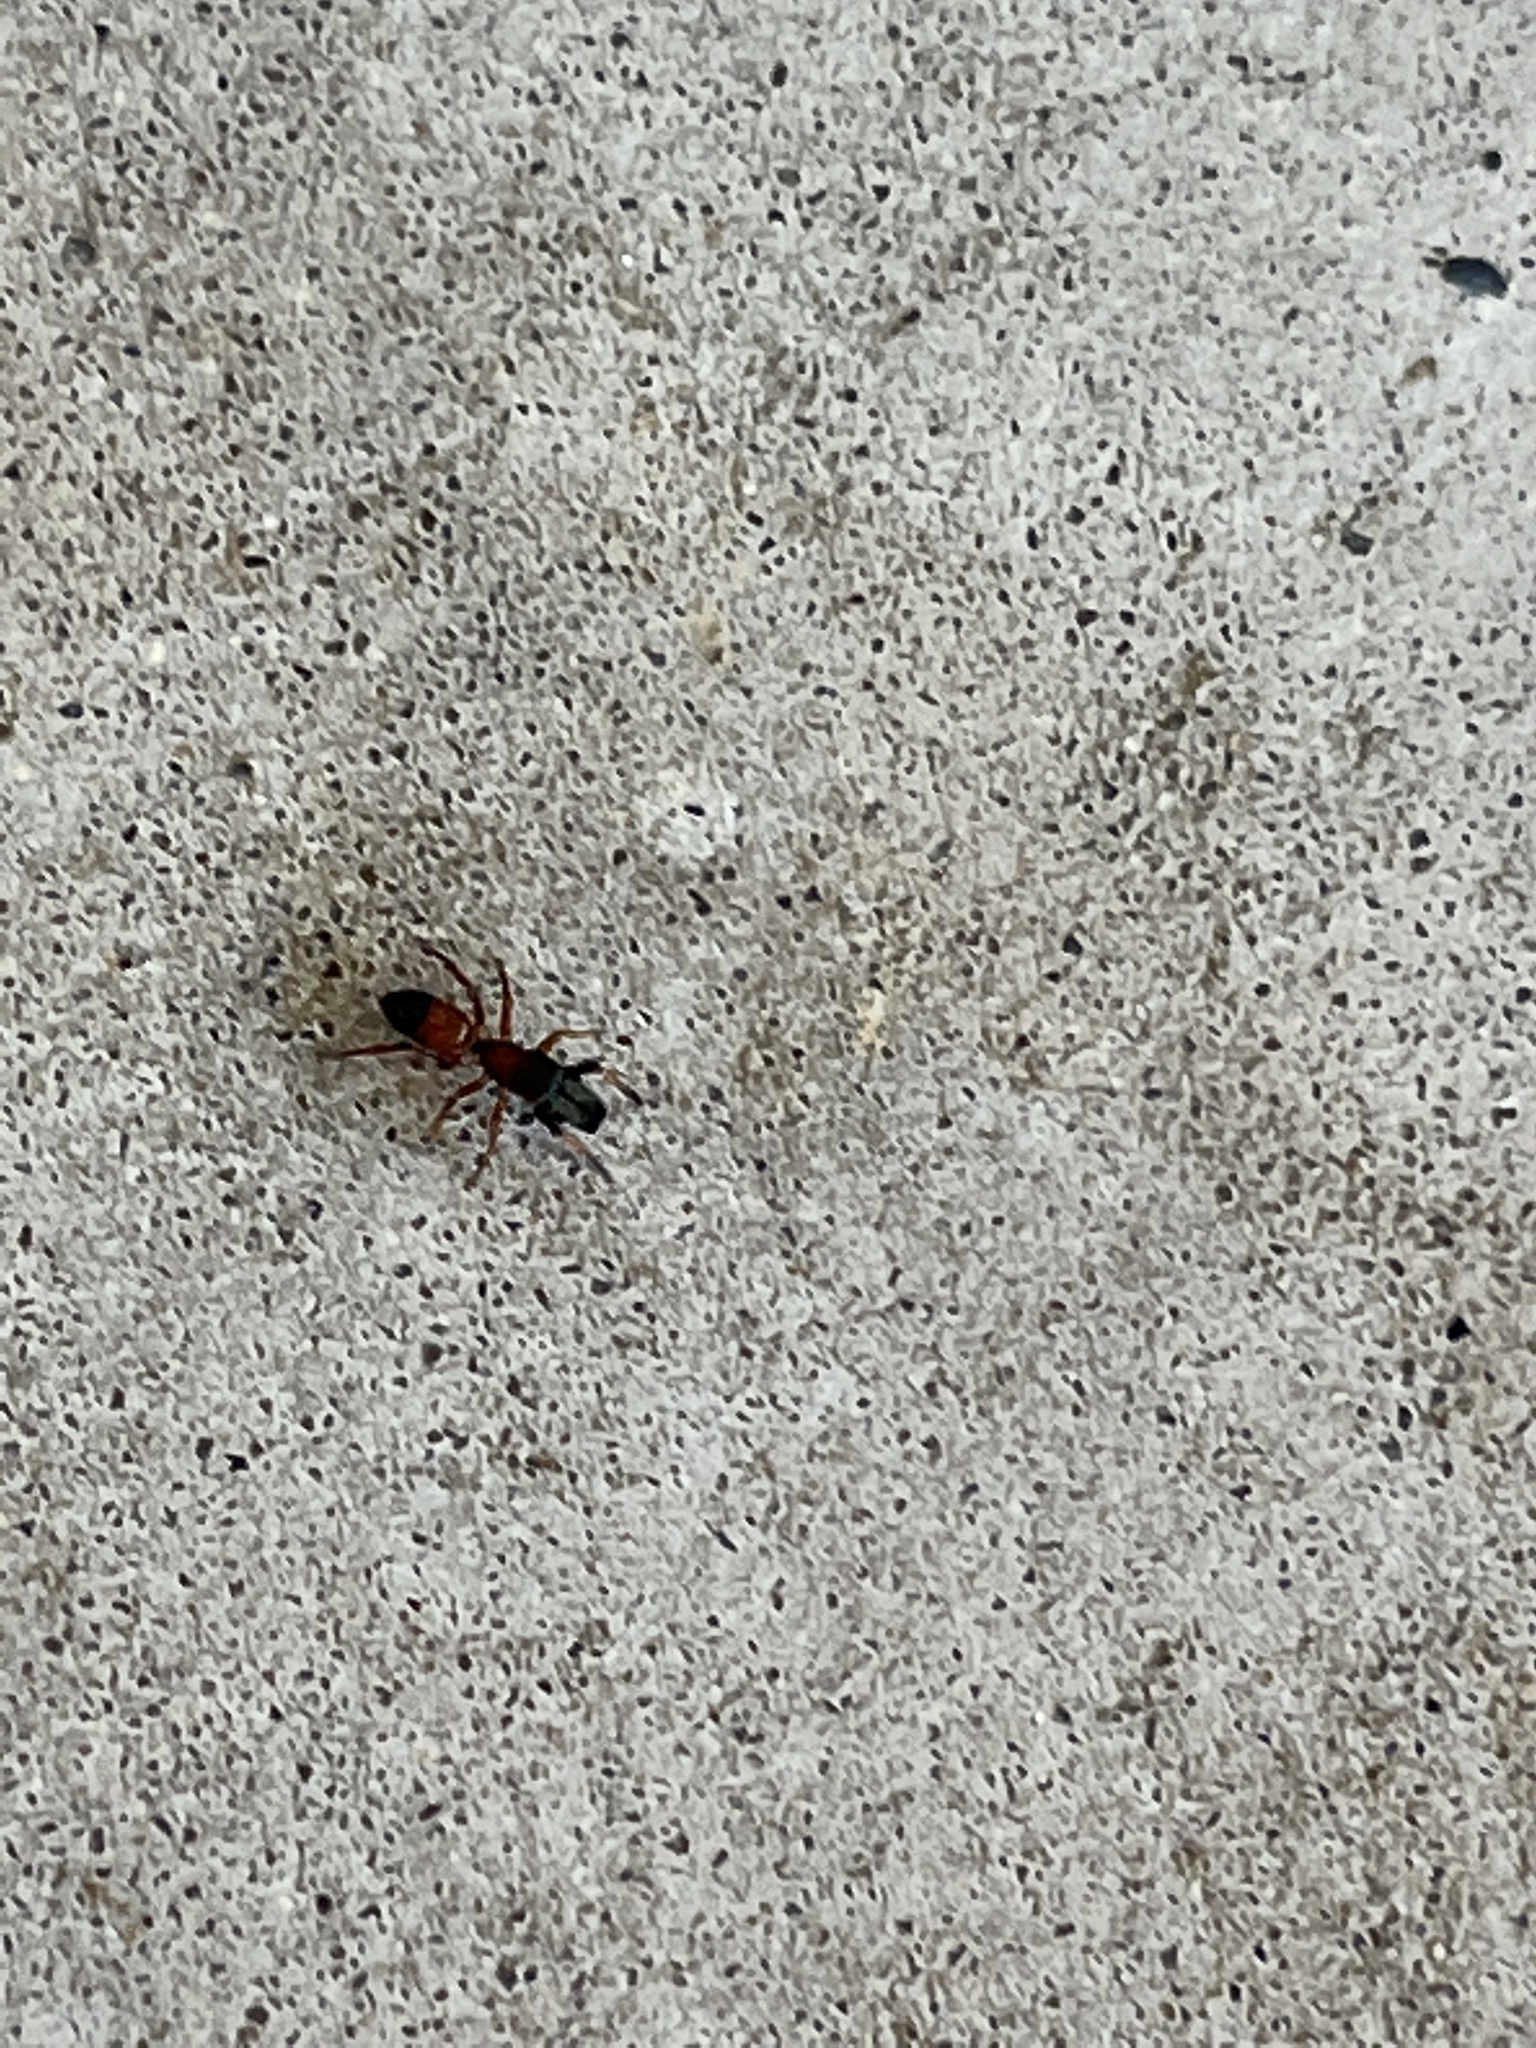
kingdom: Animalia
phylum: Arthropoda
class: Arachnida
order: Araneae
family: Salticidae
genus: Myrmarachne
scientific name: Myrmarachne formicaria
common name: Ant mimic jumping spider
